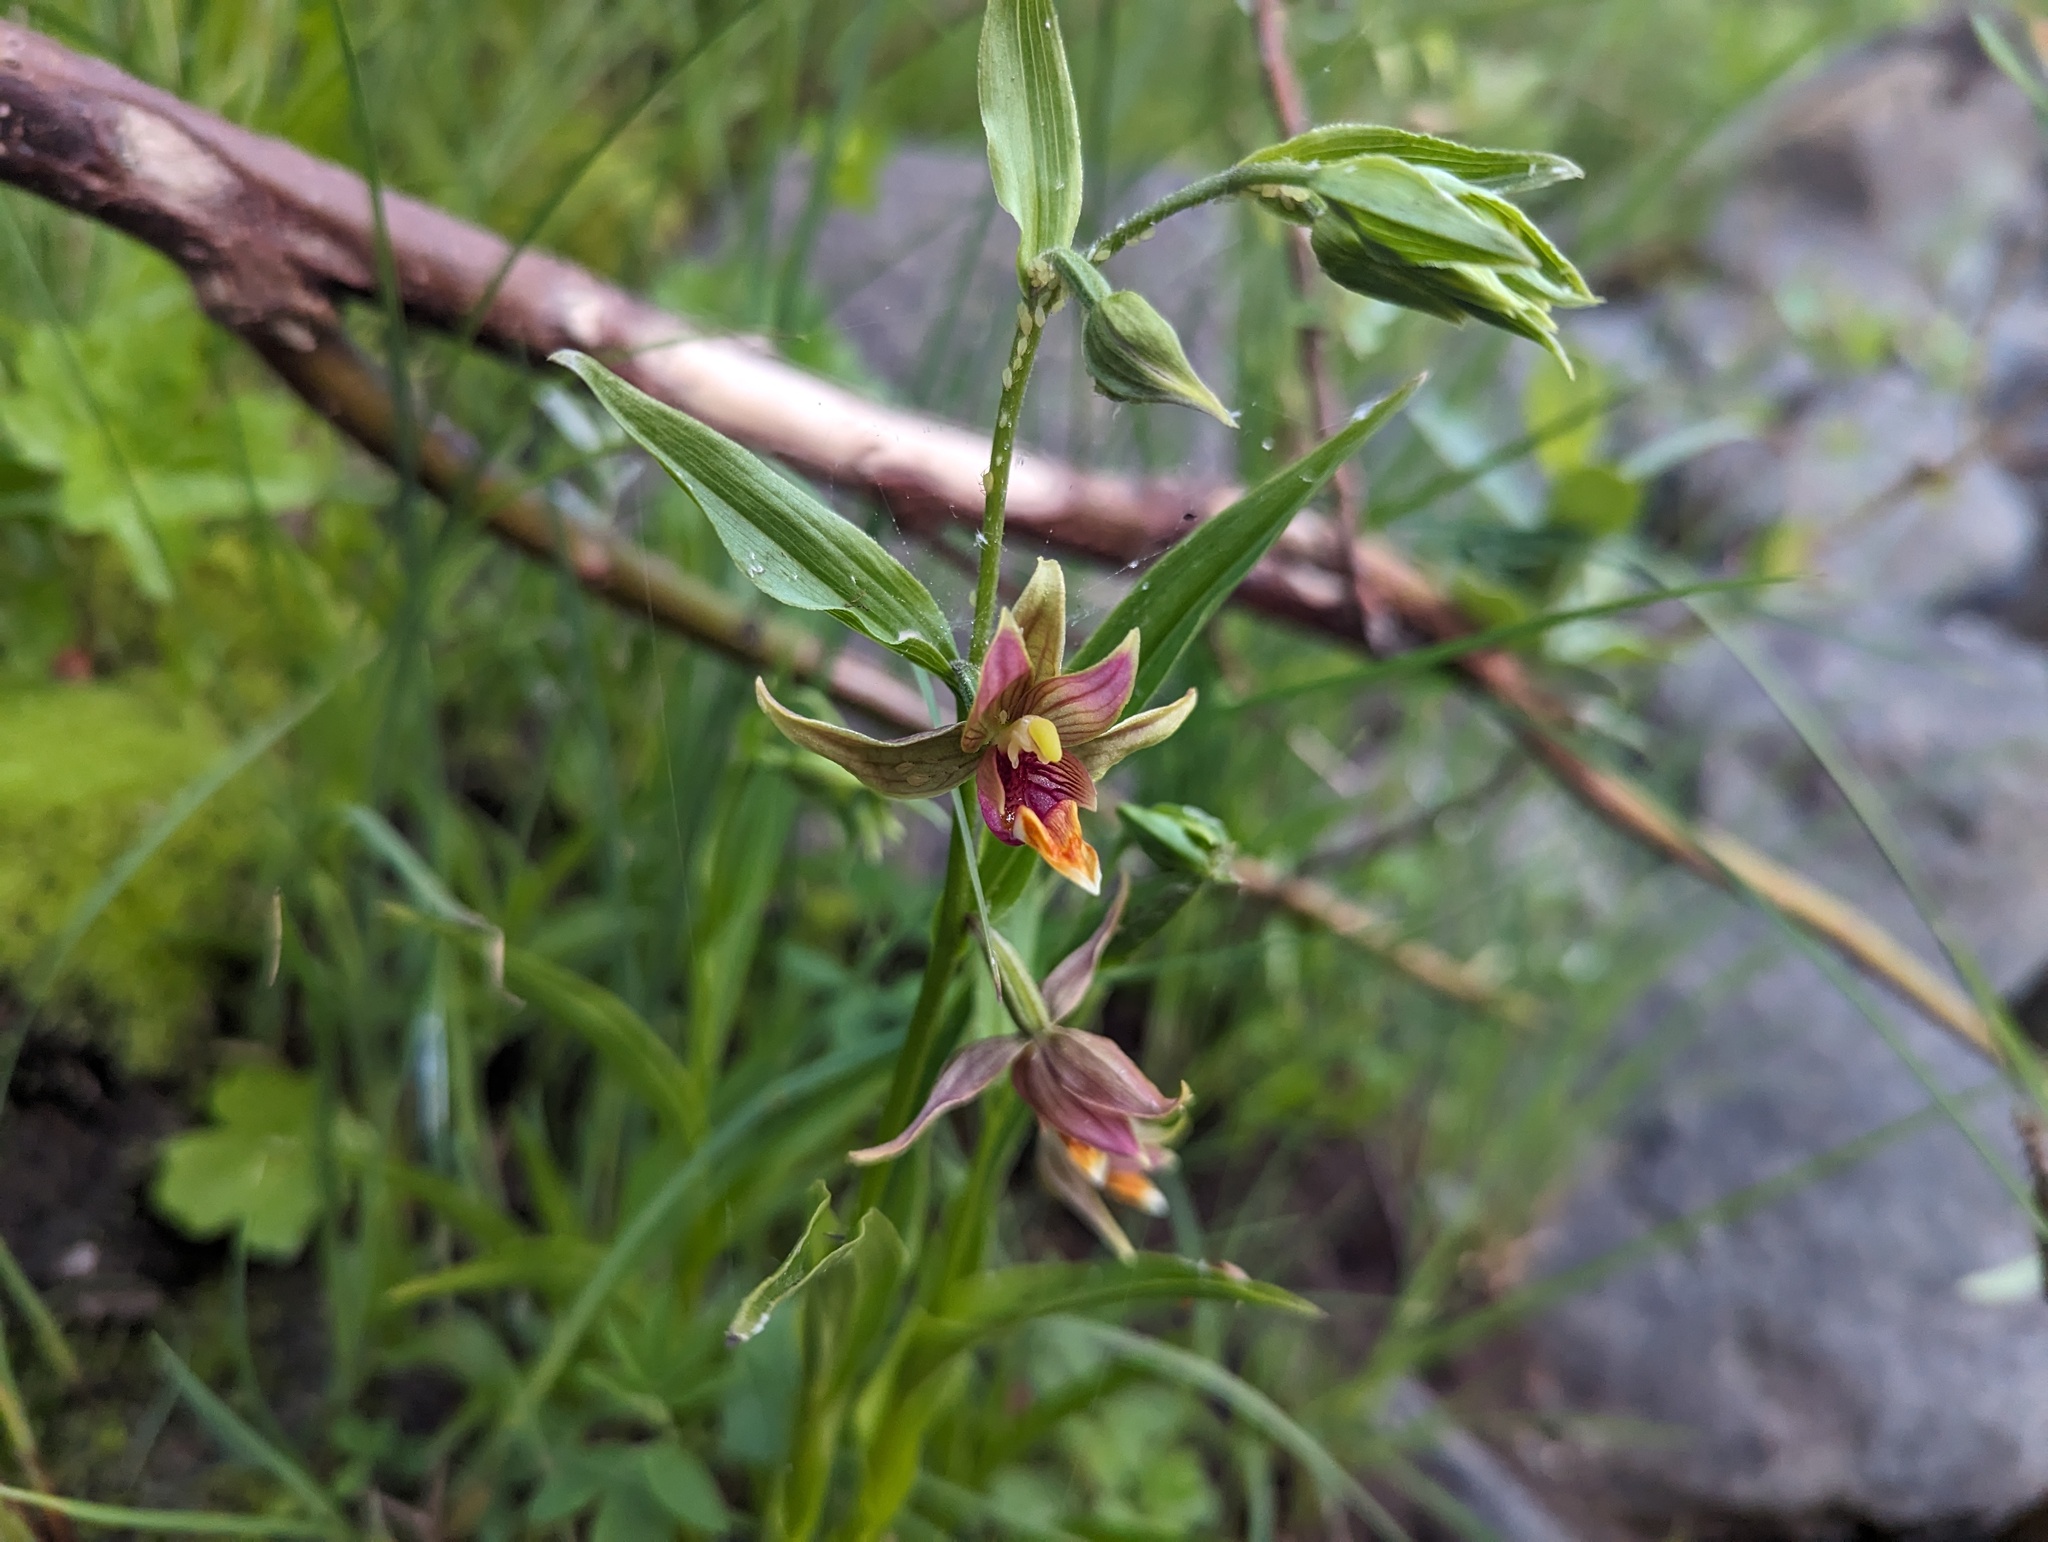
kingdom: Plantae
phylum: Tracheophyta
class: Liliopsida
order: Asparagales
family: Orchidaceae
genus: Epipactis
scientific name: Epipactis gigantea
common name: Chatterbox
